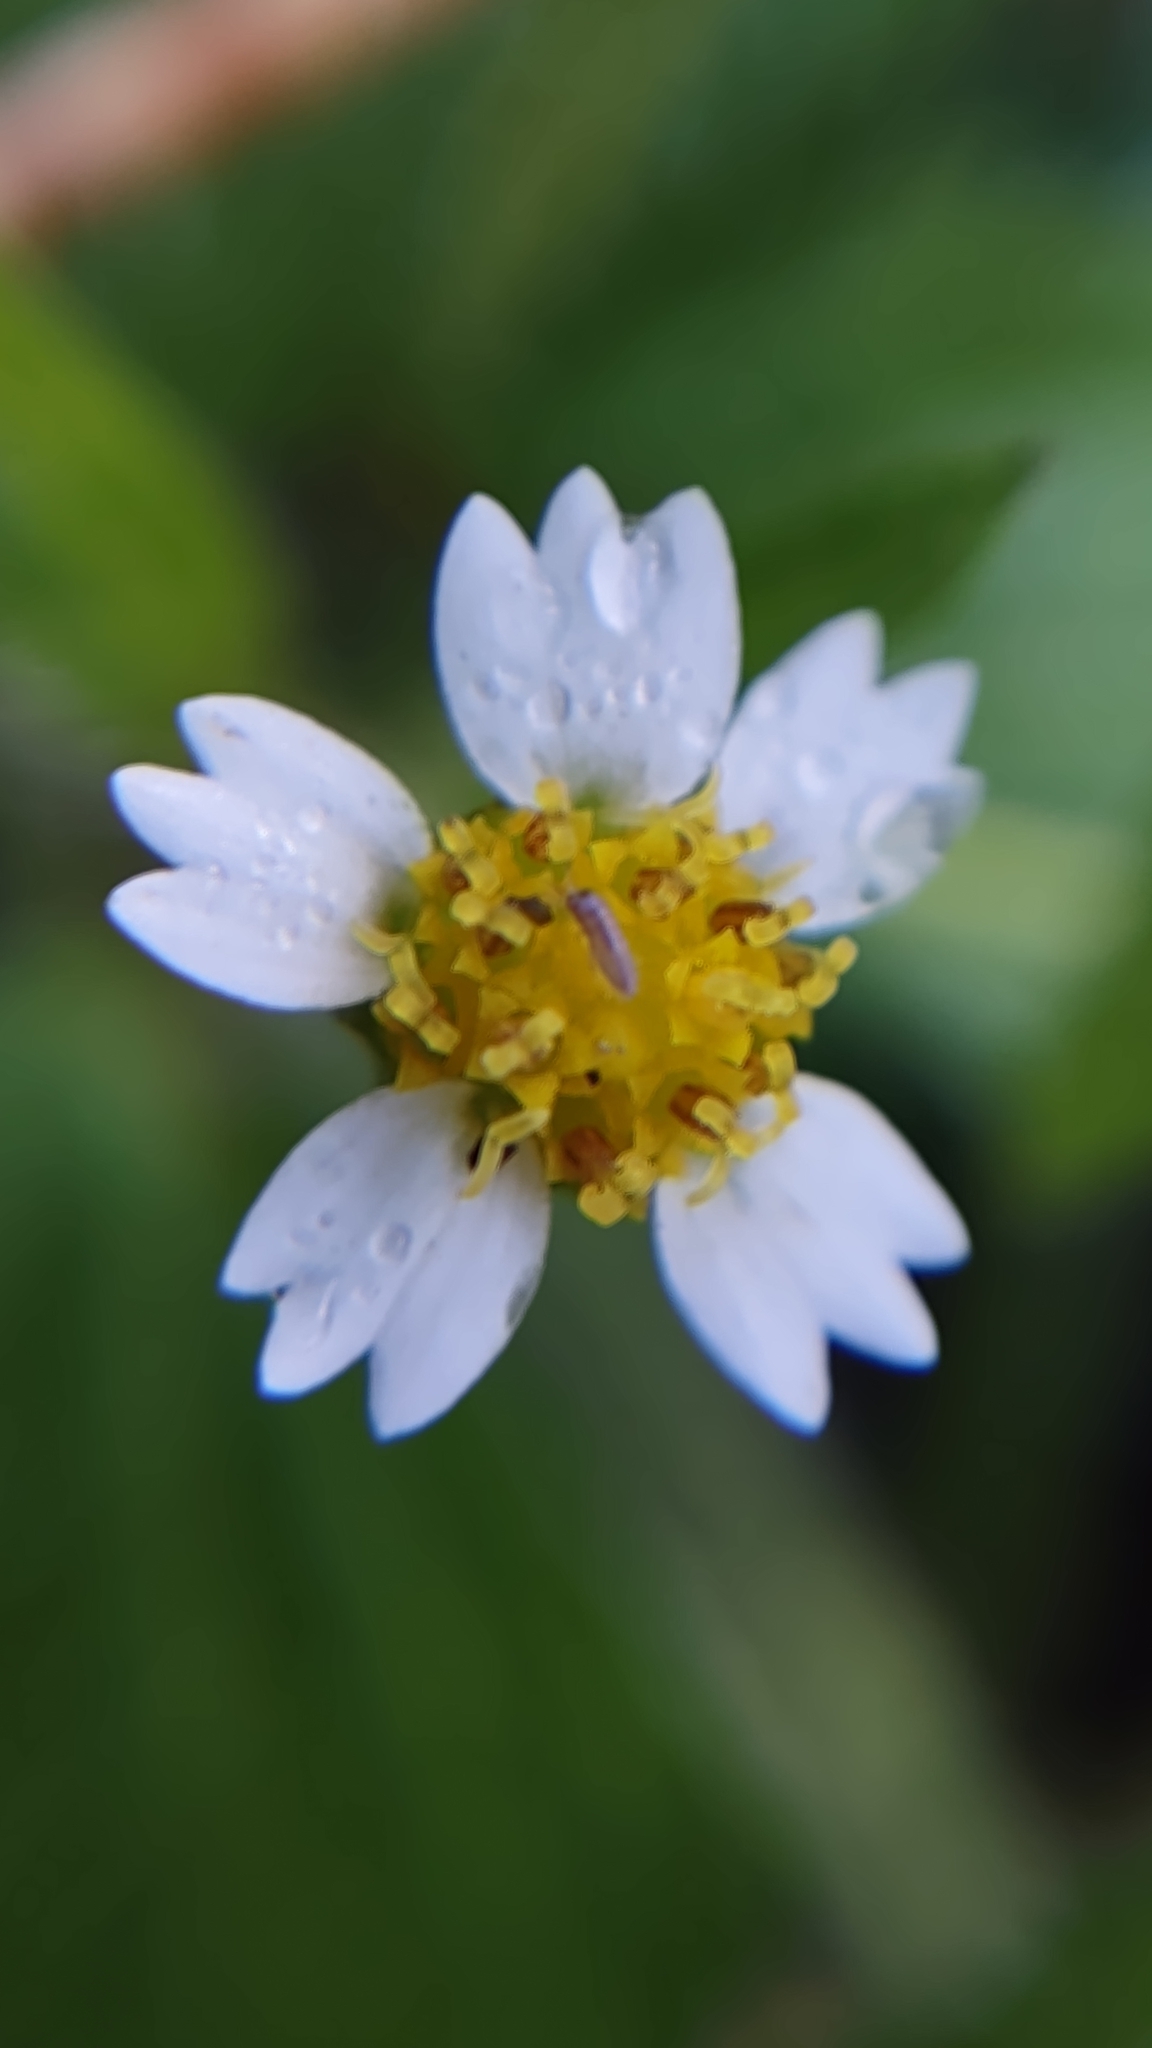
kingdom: Plantae
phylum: Tracheophyta
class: Magnoliopsida
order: Asterales
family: Asteraceae
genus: Galinsoga
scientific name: Galinsoga quadriradiata
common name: Shaggy soldier
